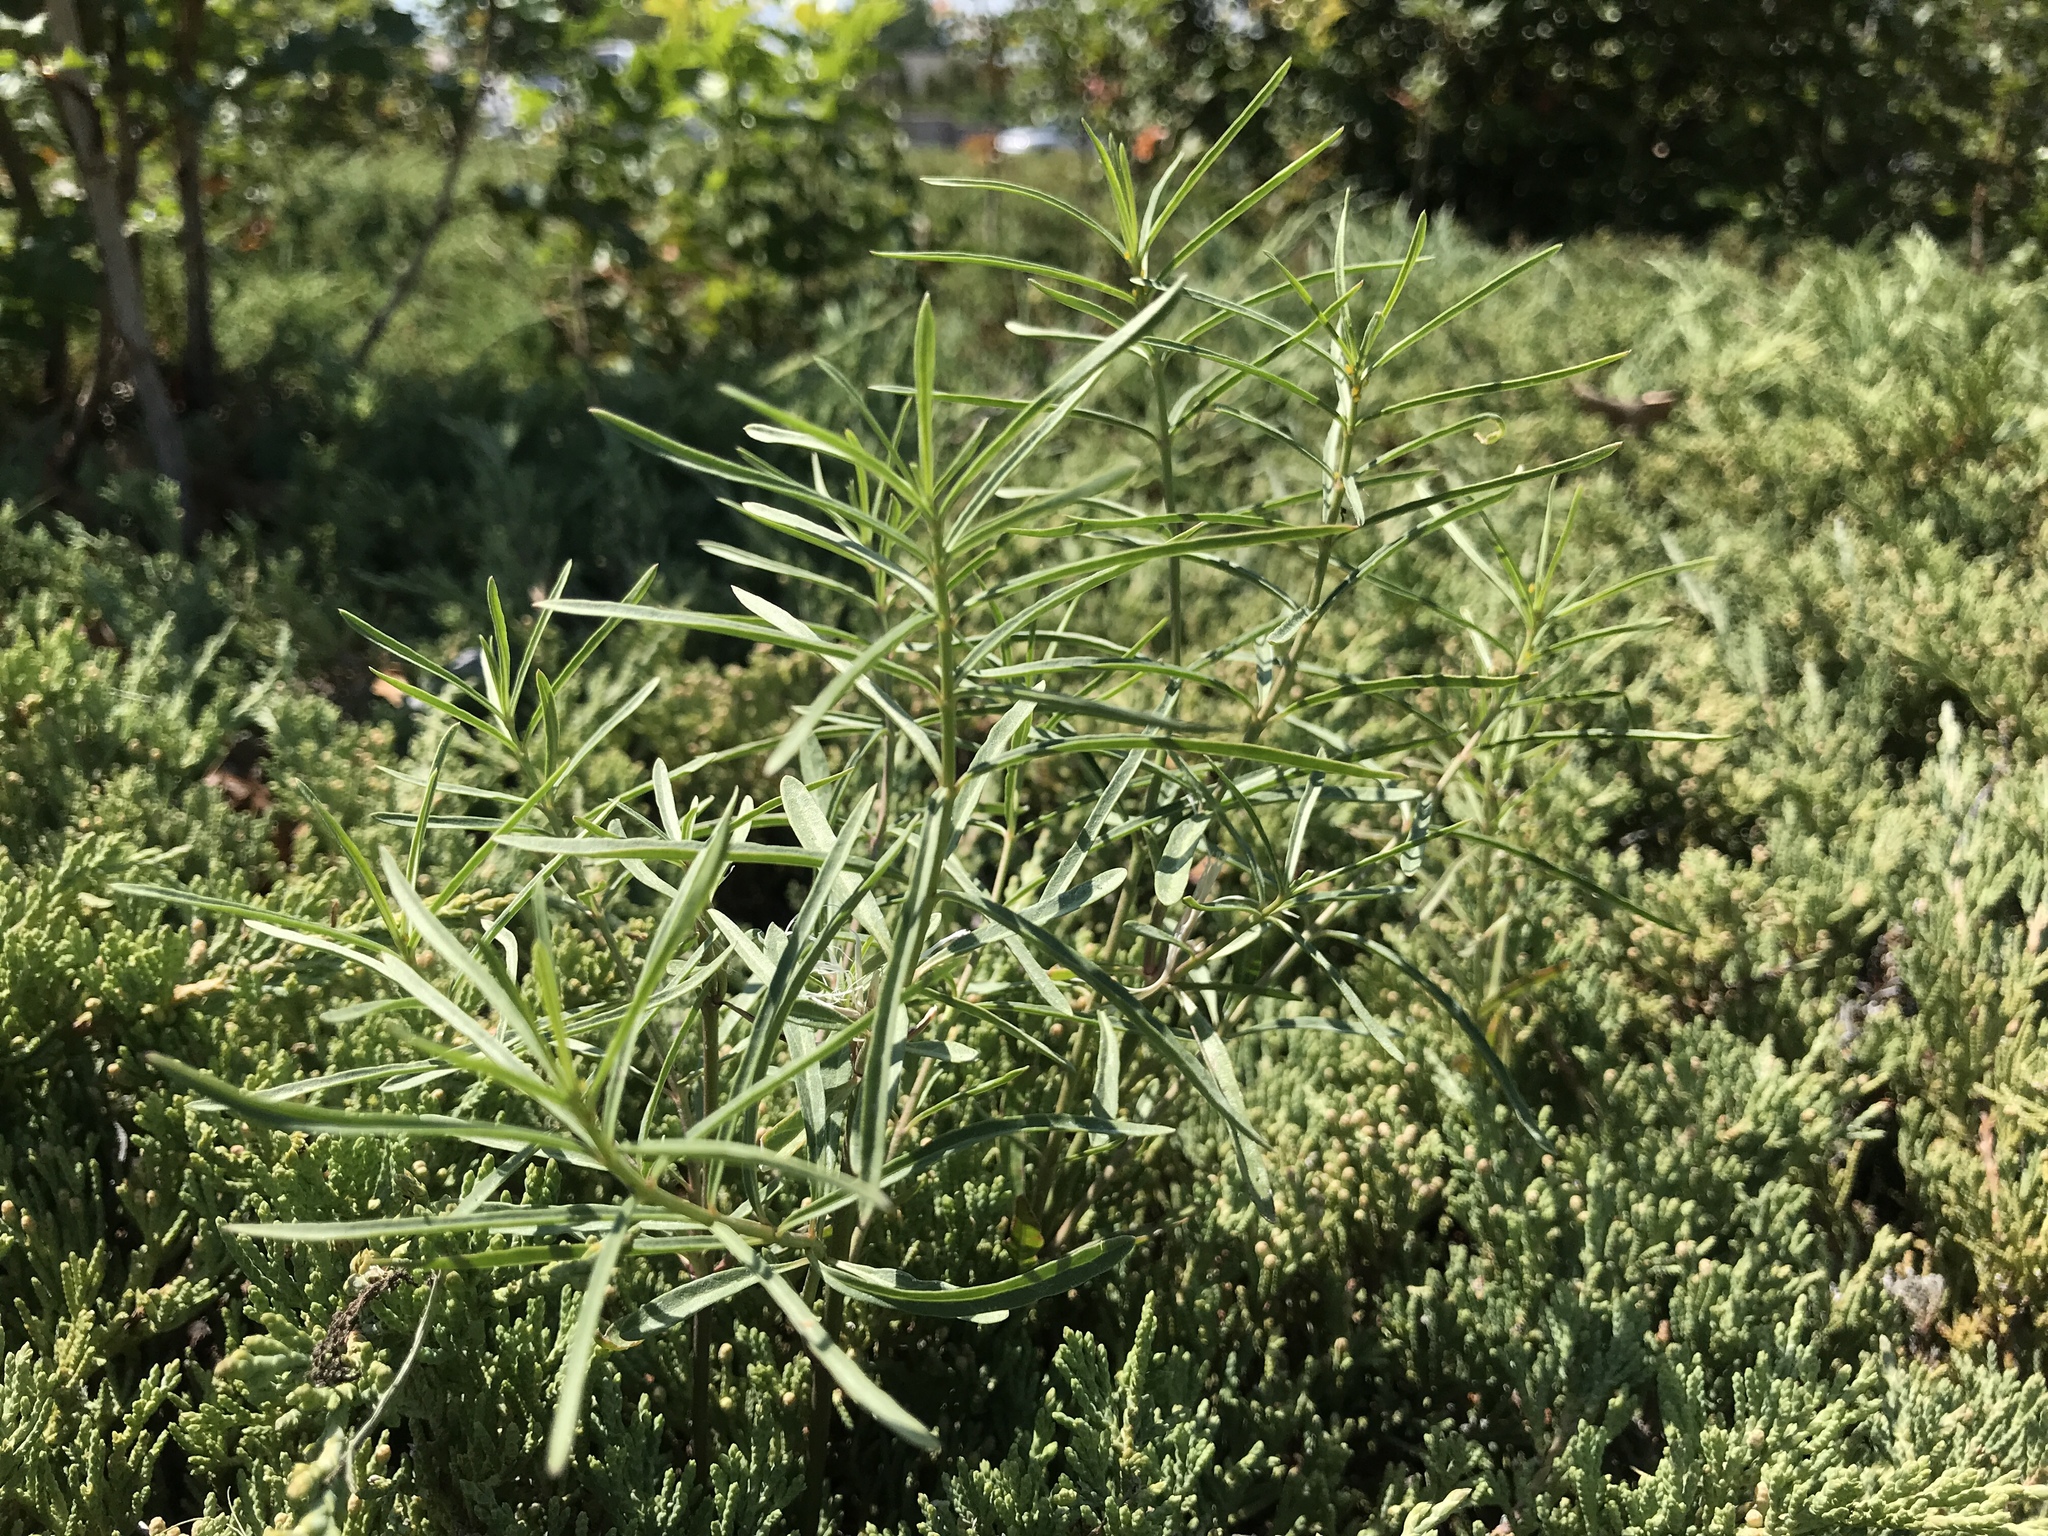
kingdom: Plantae
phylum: Tracheophyta
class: Magnoliopsida
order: Gentianales
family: Apocynaceae
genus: Asclepias
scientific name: Asclepias fascicularis
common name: Mexican milkweed
